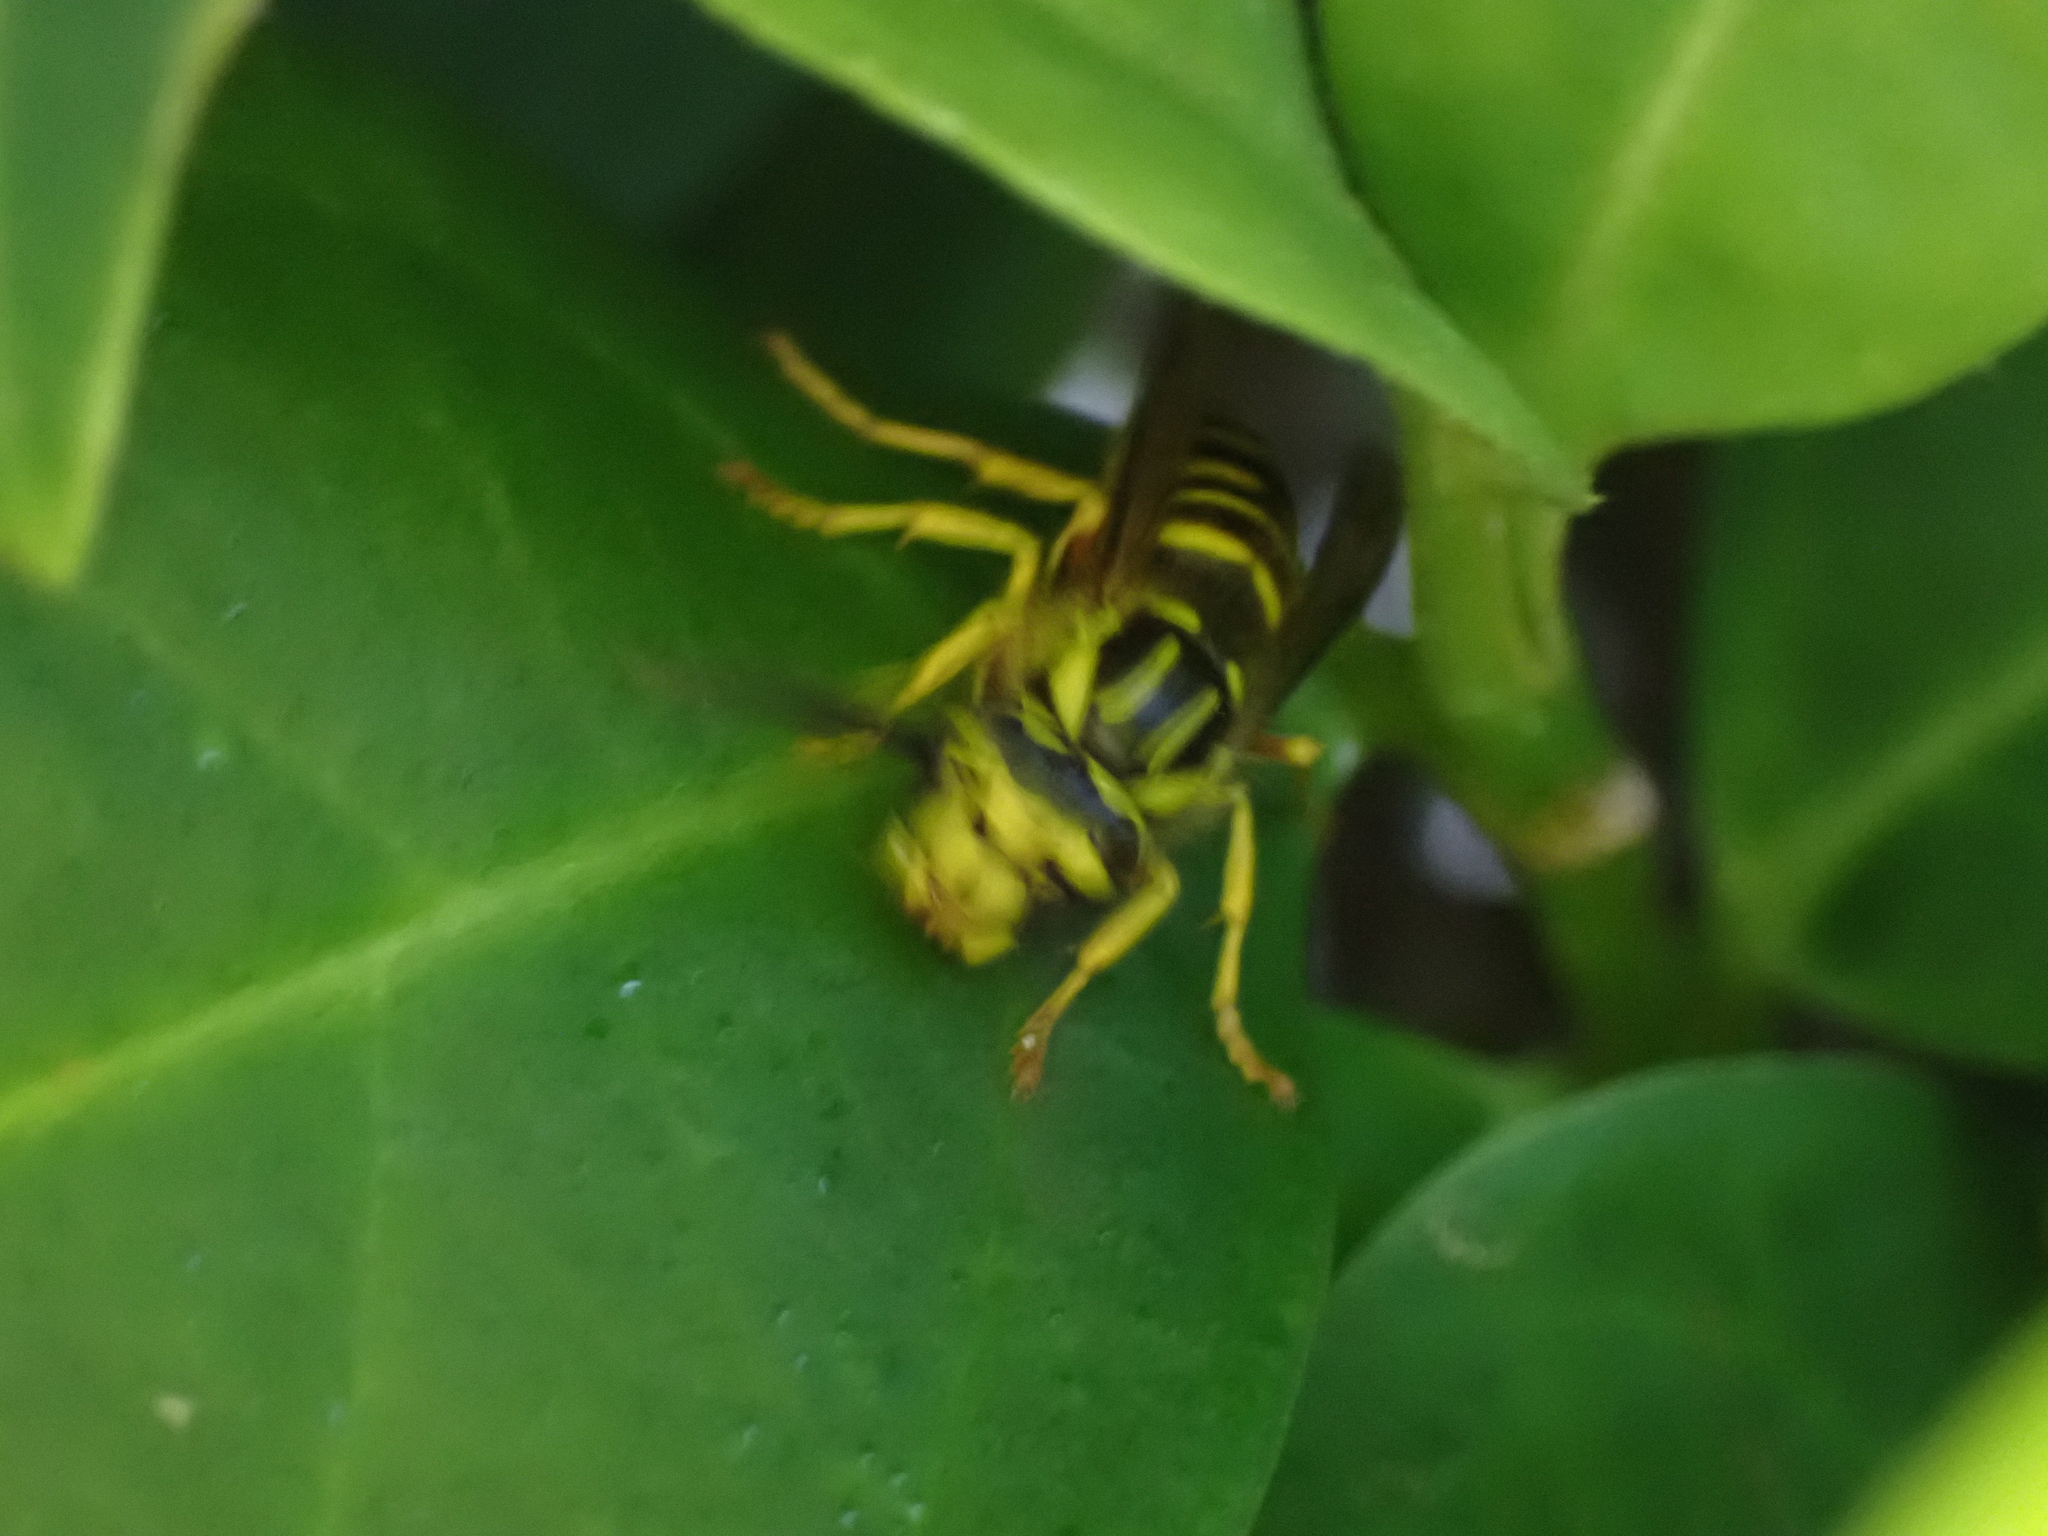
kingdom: Animalia
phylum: Arthropoda
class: Insecta
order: Hymenoptera
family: Vespidae
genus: Vespula
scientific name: Vespula squamosa
